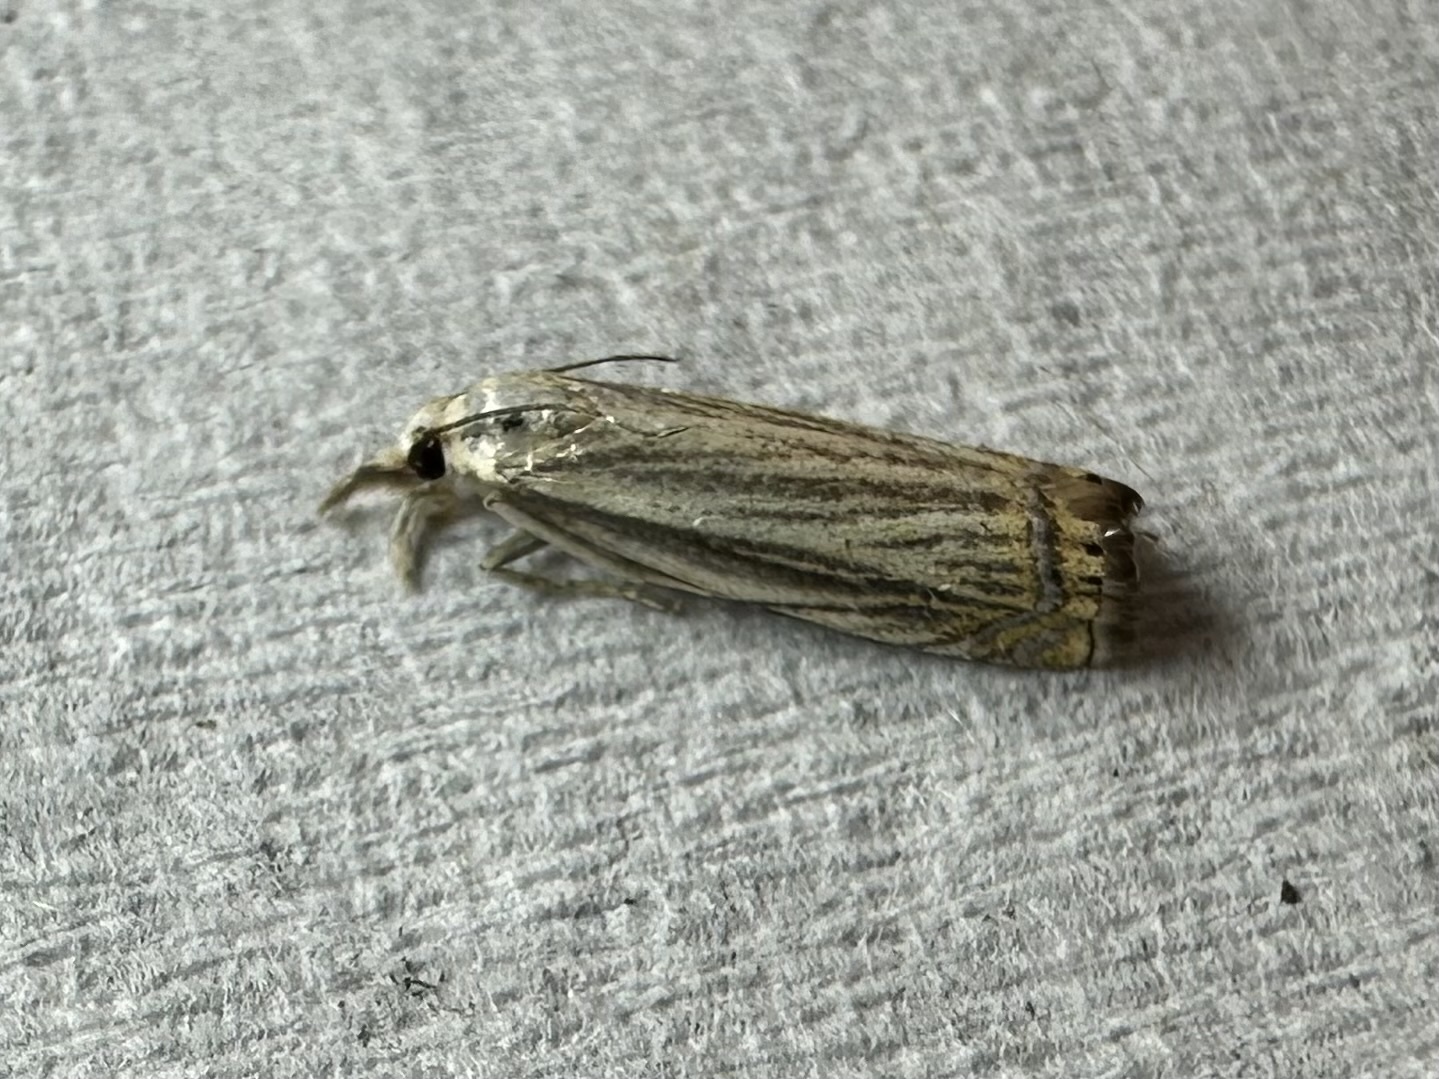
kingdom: Animalia
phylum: Arthropoda
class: Insecta
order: Lepidoptera
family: Crambidae
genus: Chrysoteuchia
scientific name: Chrysoteuchia topiarius
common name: Topiary grass-veneer
